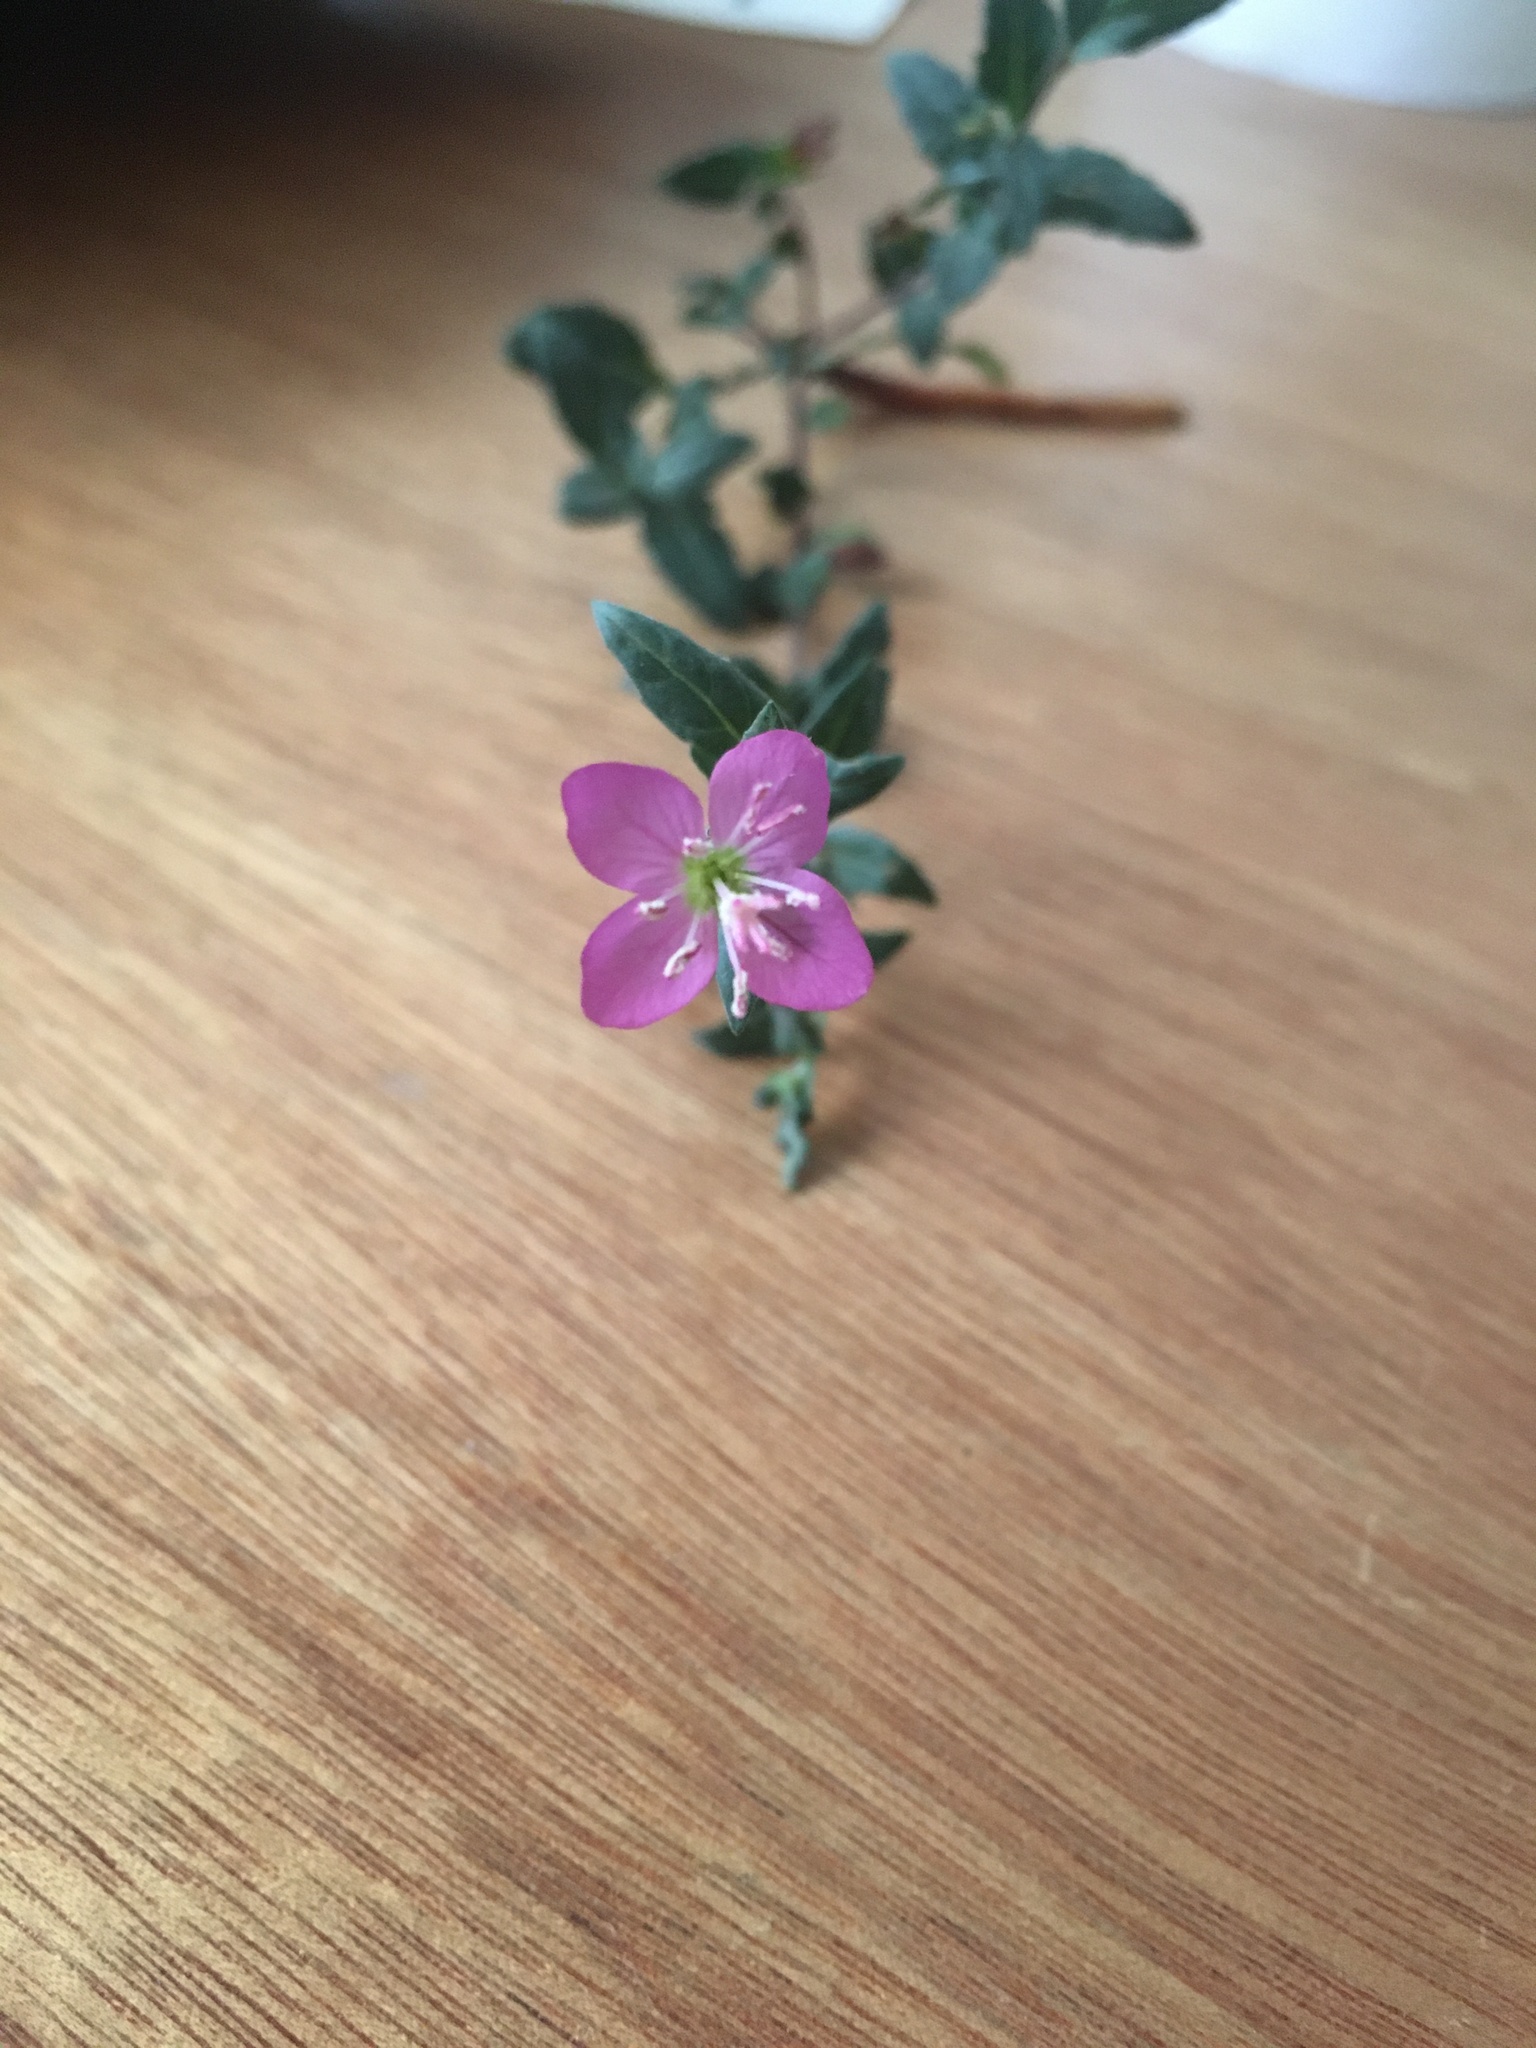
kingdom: Plantae
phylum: Tracheophyta
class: Magnoliopsida
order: Myrtales
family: Onagraceae
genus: Oenothera
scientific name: Oenothera rosea
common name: Rosy evening-primrose
